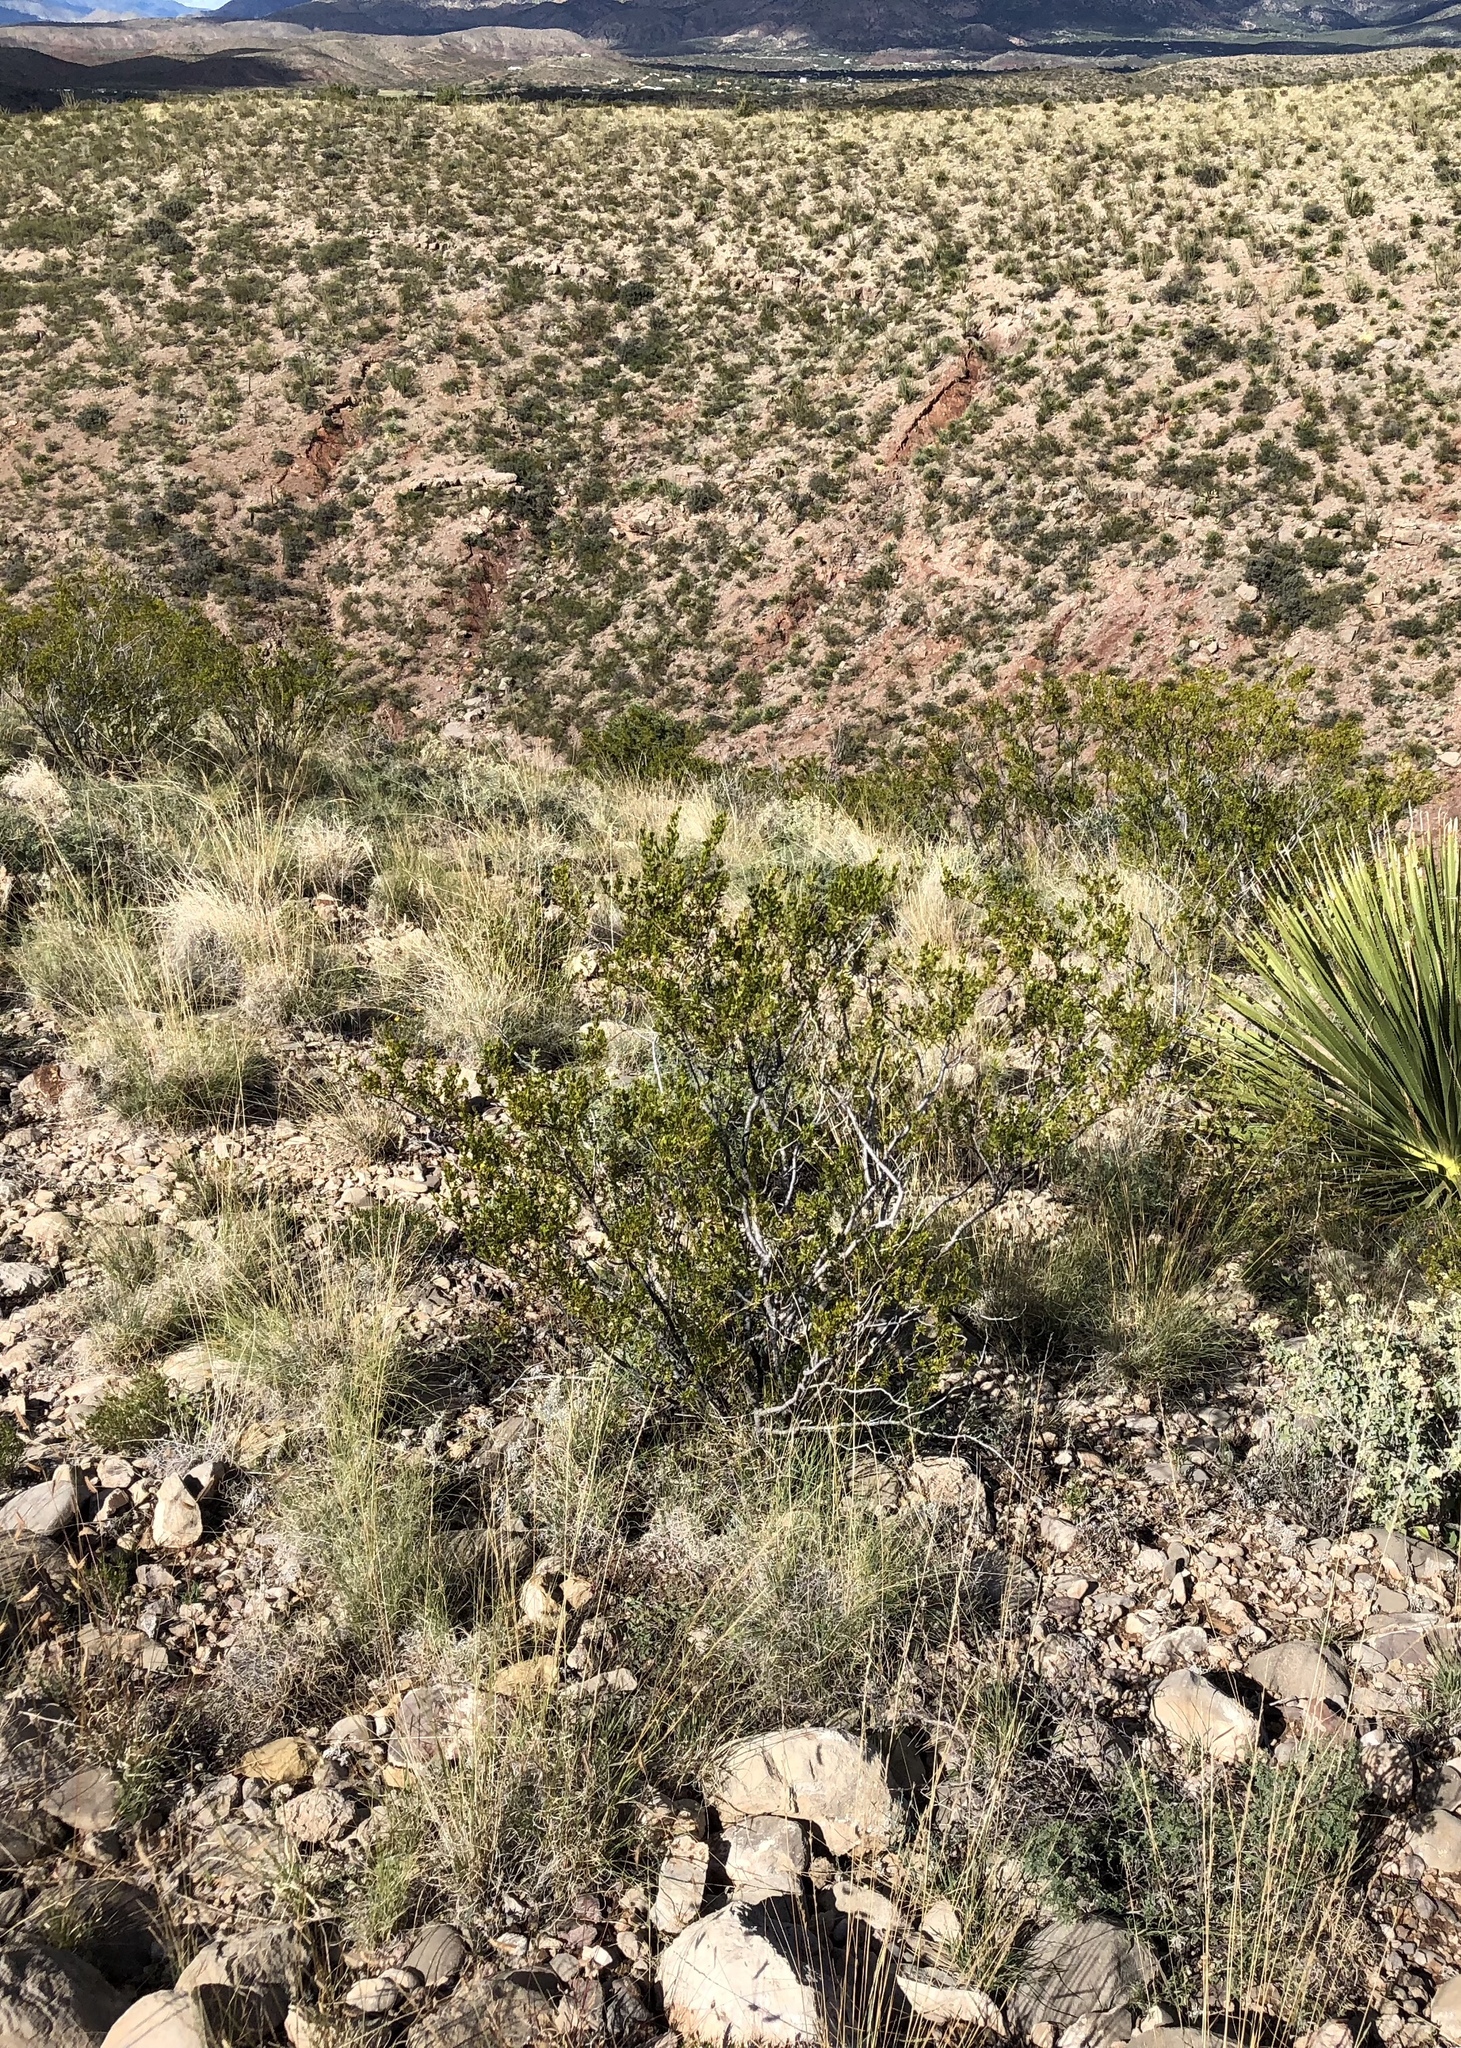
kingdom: Plantae
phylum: Tracheophyta
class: Magnoliopsida
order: Zygophyllales
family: Zygophyllaceae
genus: Larrea
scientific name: Larrea tridentata
